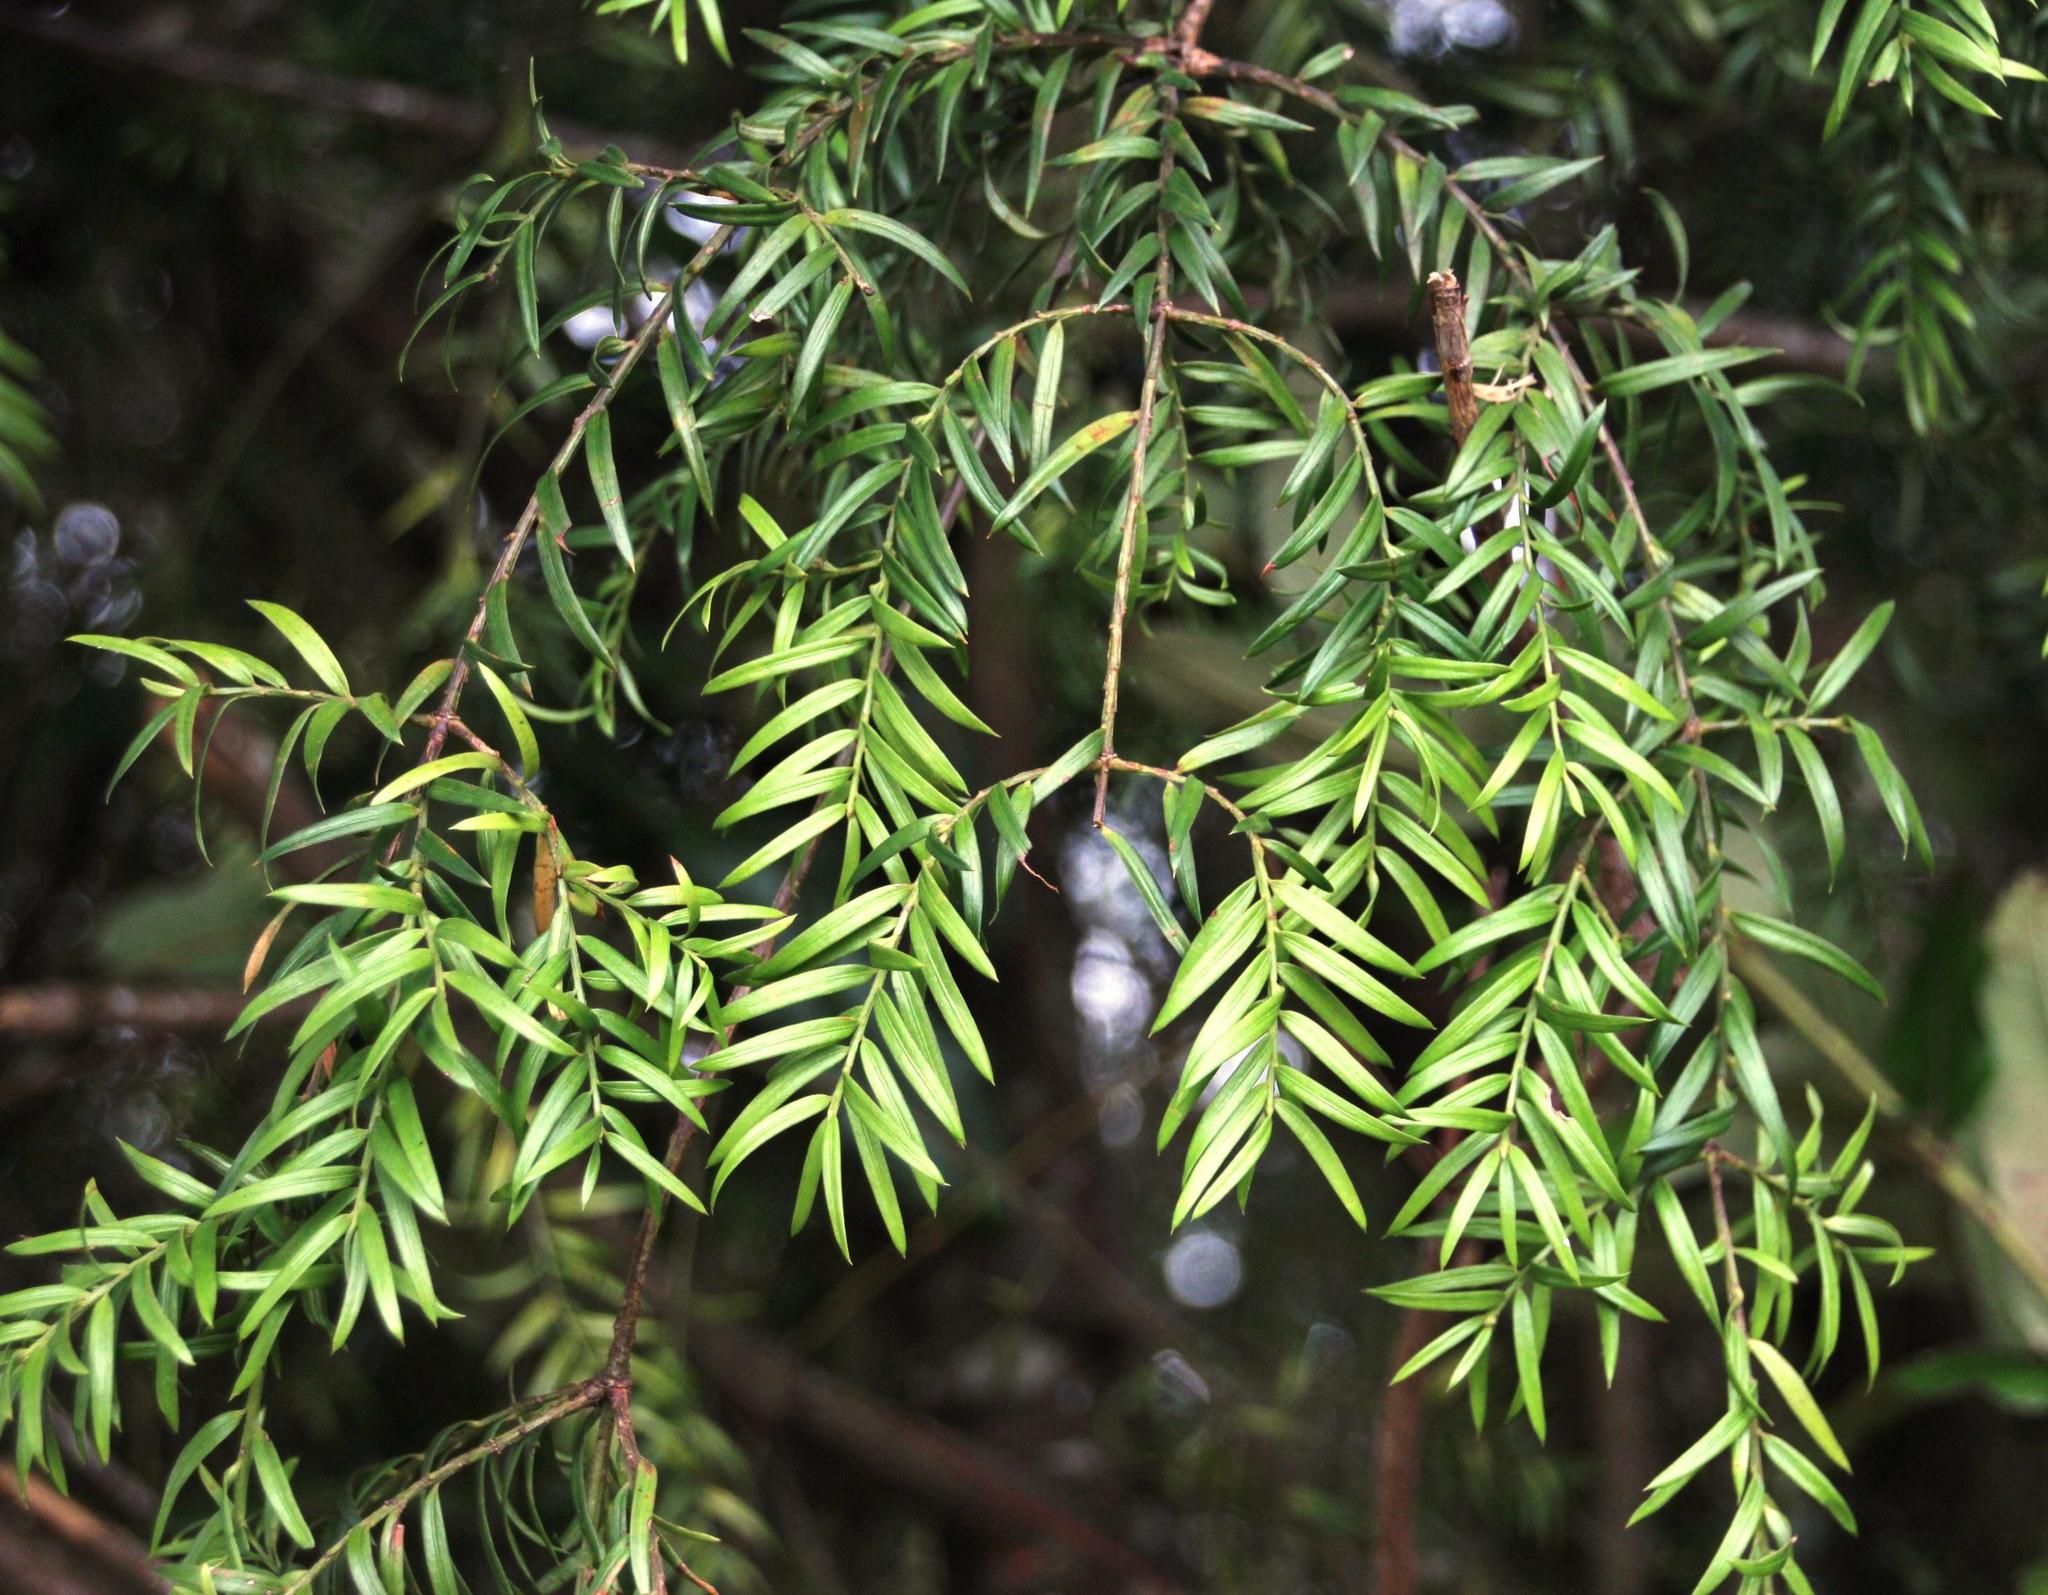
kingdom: Plantae
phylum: Tracheophyta
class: Pinopsida
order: Pinales
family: Podocarpaceae
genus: Saxegothaea
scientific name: Saxegothaea conspicua
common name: Prince albert's yew
